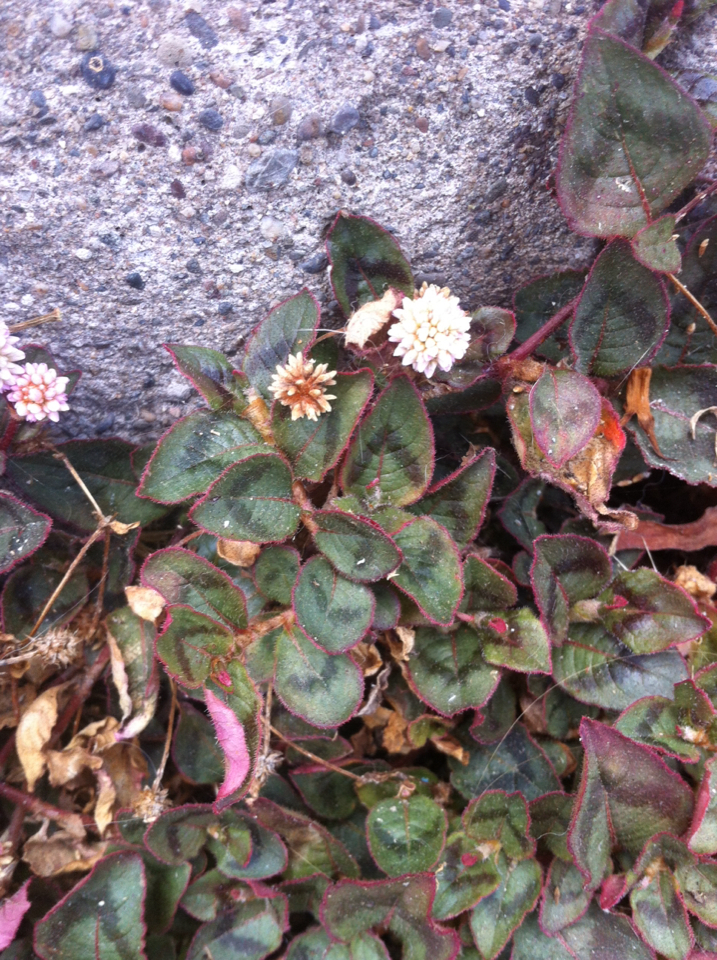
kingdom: Plantae
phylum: Tracheophyta
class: Magnoliopsida
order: Caryophyllales
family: Polygonaceae
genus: Persicaria
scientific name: Persicaria capitata
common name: Pinkhead smartweed
